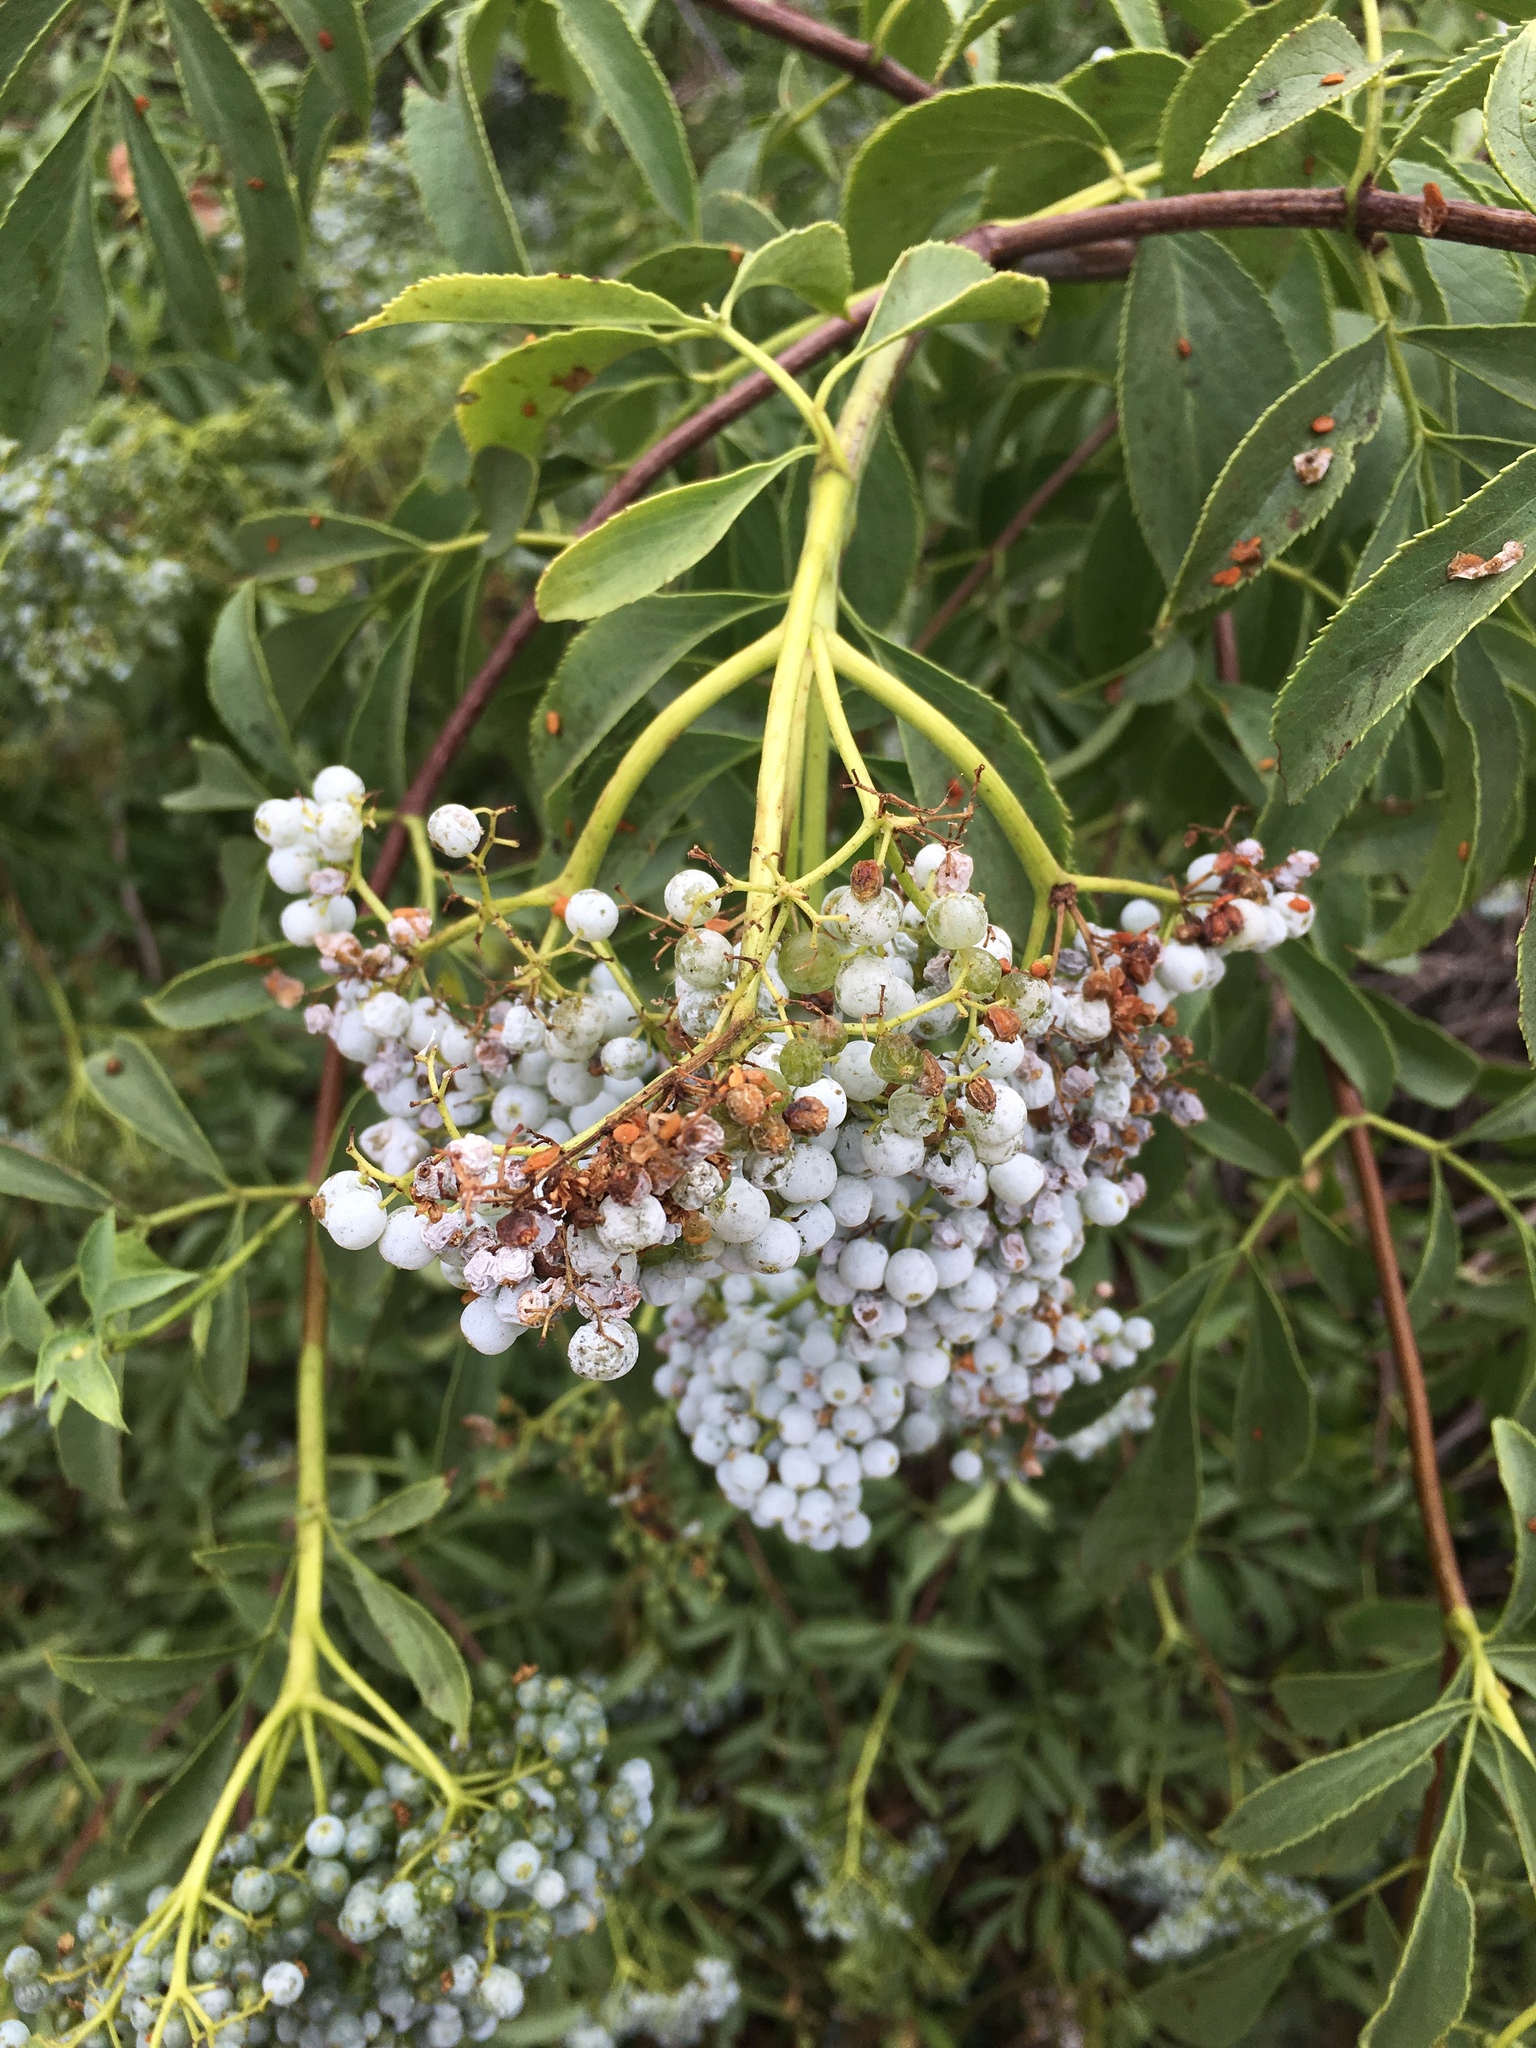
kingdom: Plantae
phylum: Tracheophyta
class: Magnoliopsida
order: Dipsacales
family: Viburnaceae
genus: Sambucus
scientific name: Sambucus cerulea
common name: Blue elder
